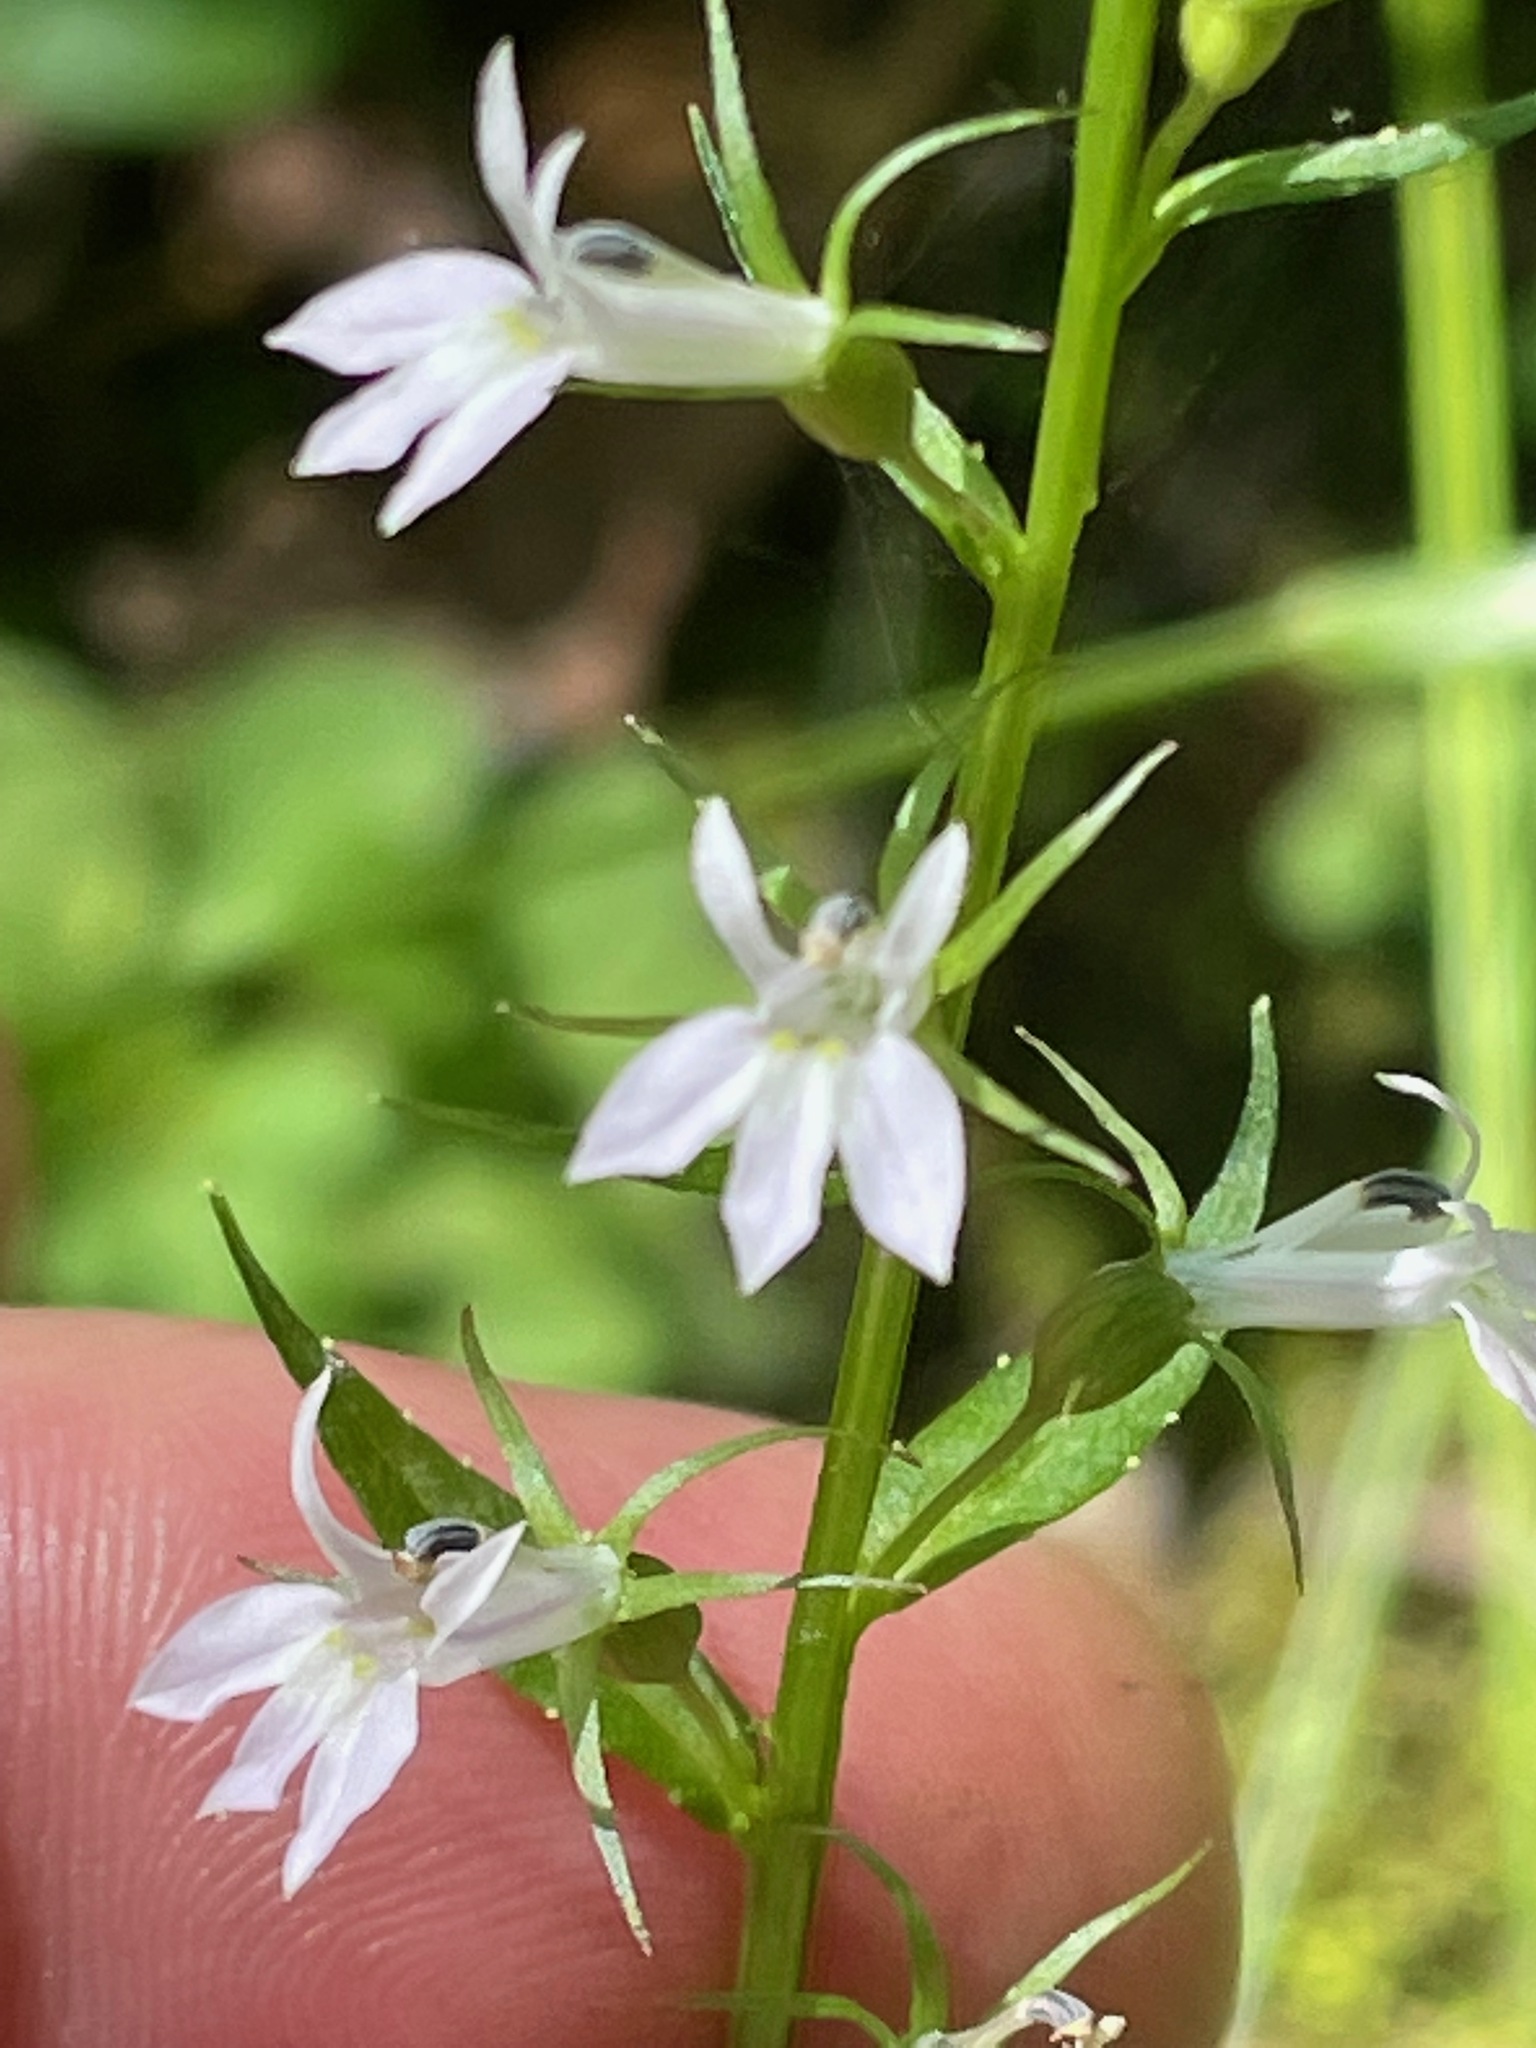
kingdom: Plantae
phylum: Tracheophyta
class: Magnoliopsida
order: Asterales
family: Campanulaceae
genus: Lobelia
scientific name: Lobelia inflata
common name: Indian tobacco
